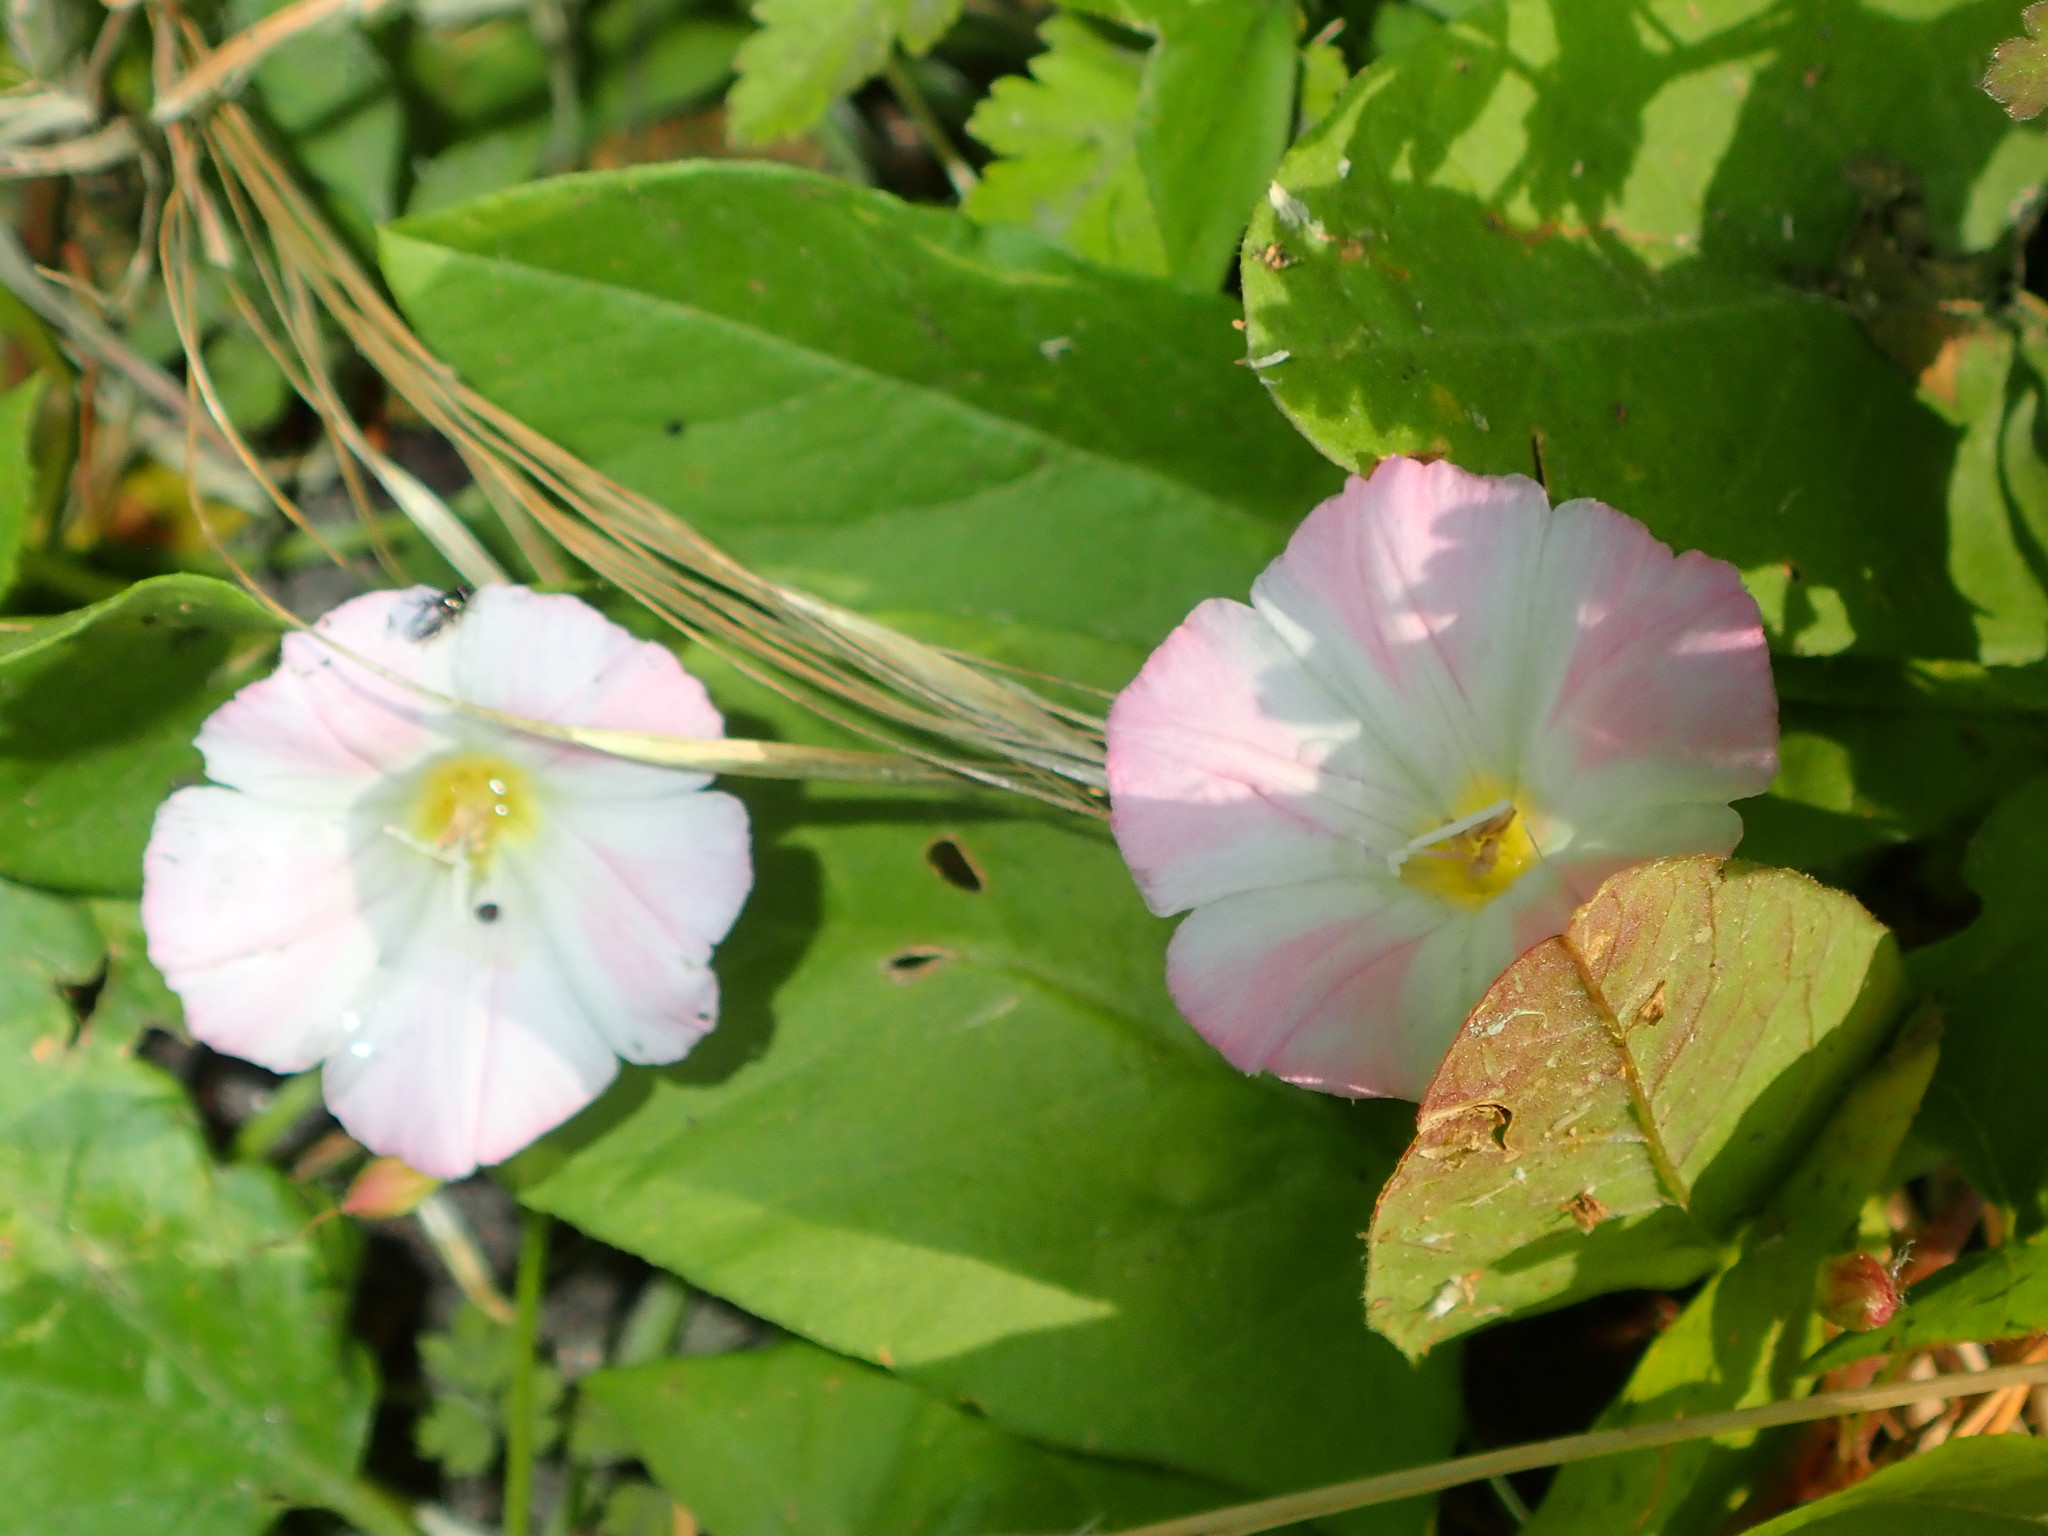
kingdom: Plantae
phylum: Tracheophyta
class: Magnoliopsida
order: Solanales
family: Convolvulaceae
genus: Convolvulus
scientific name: Convolvulus arvensis
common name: Field bindweed
